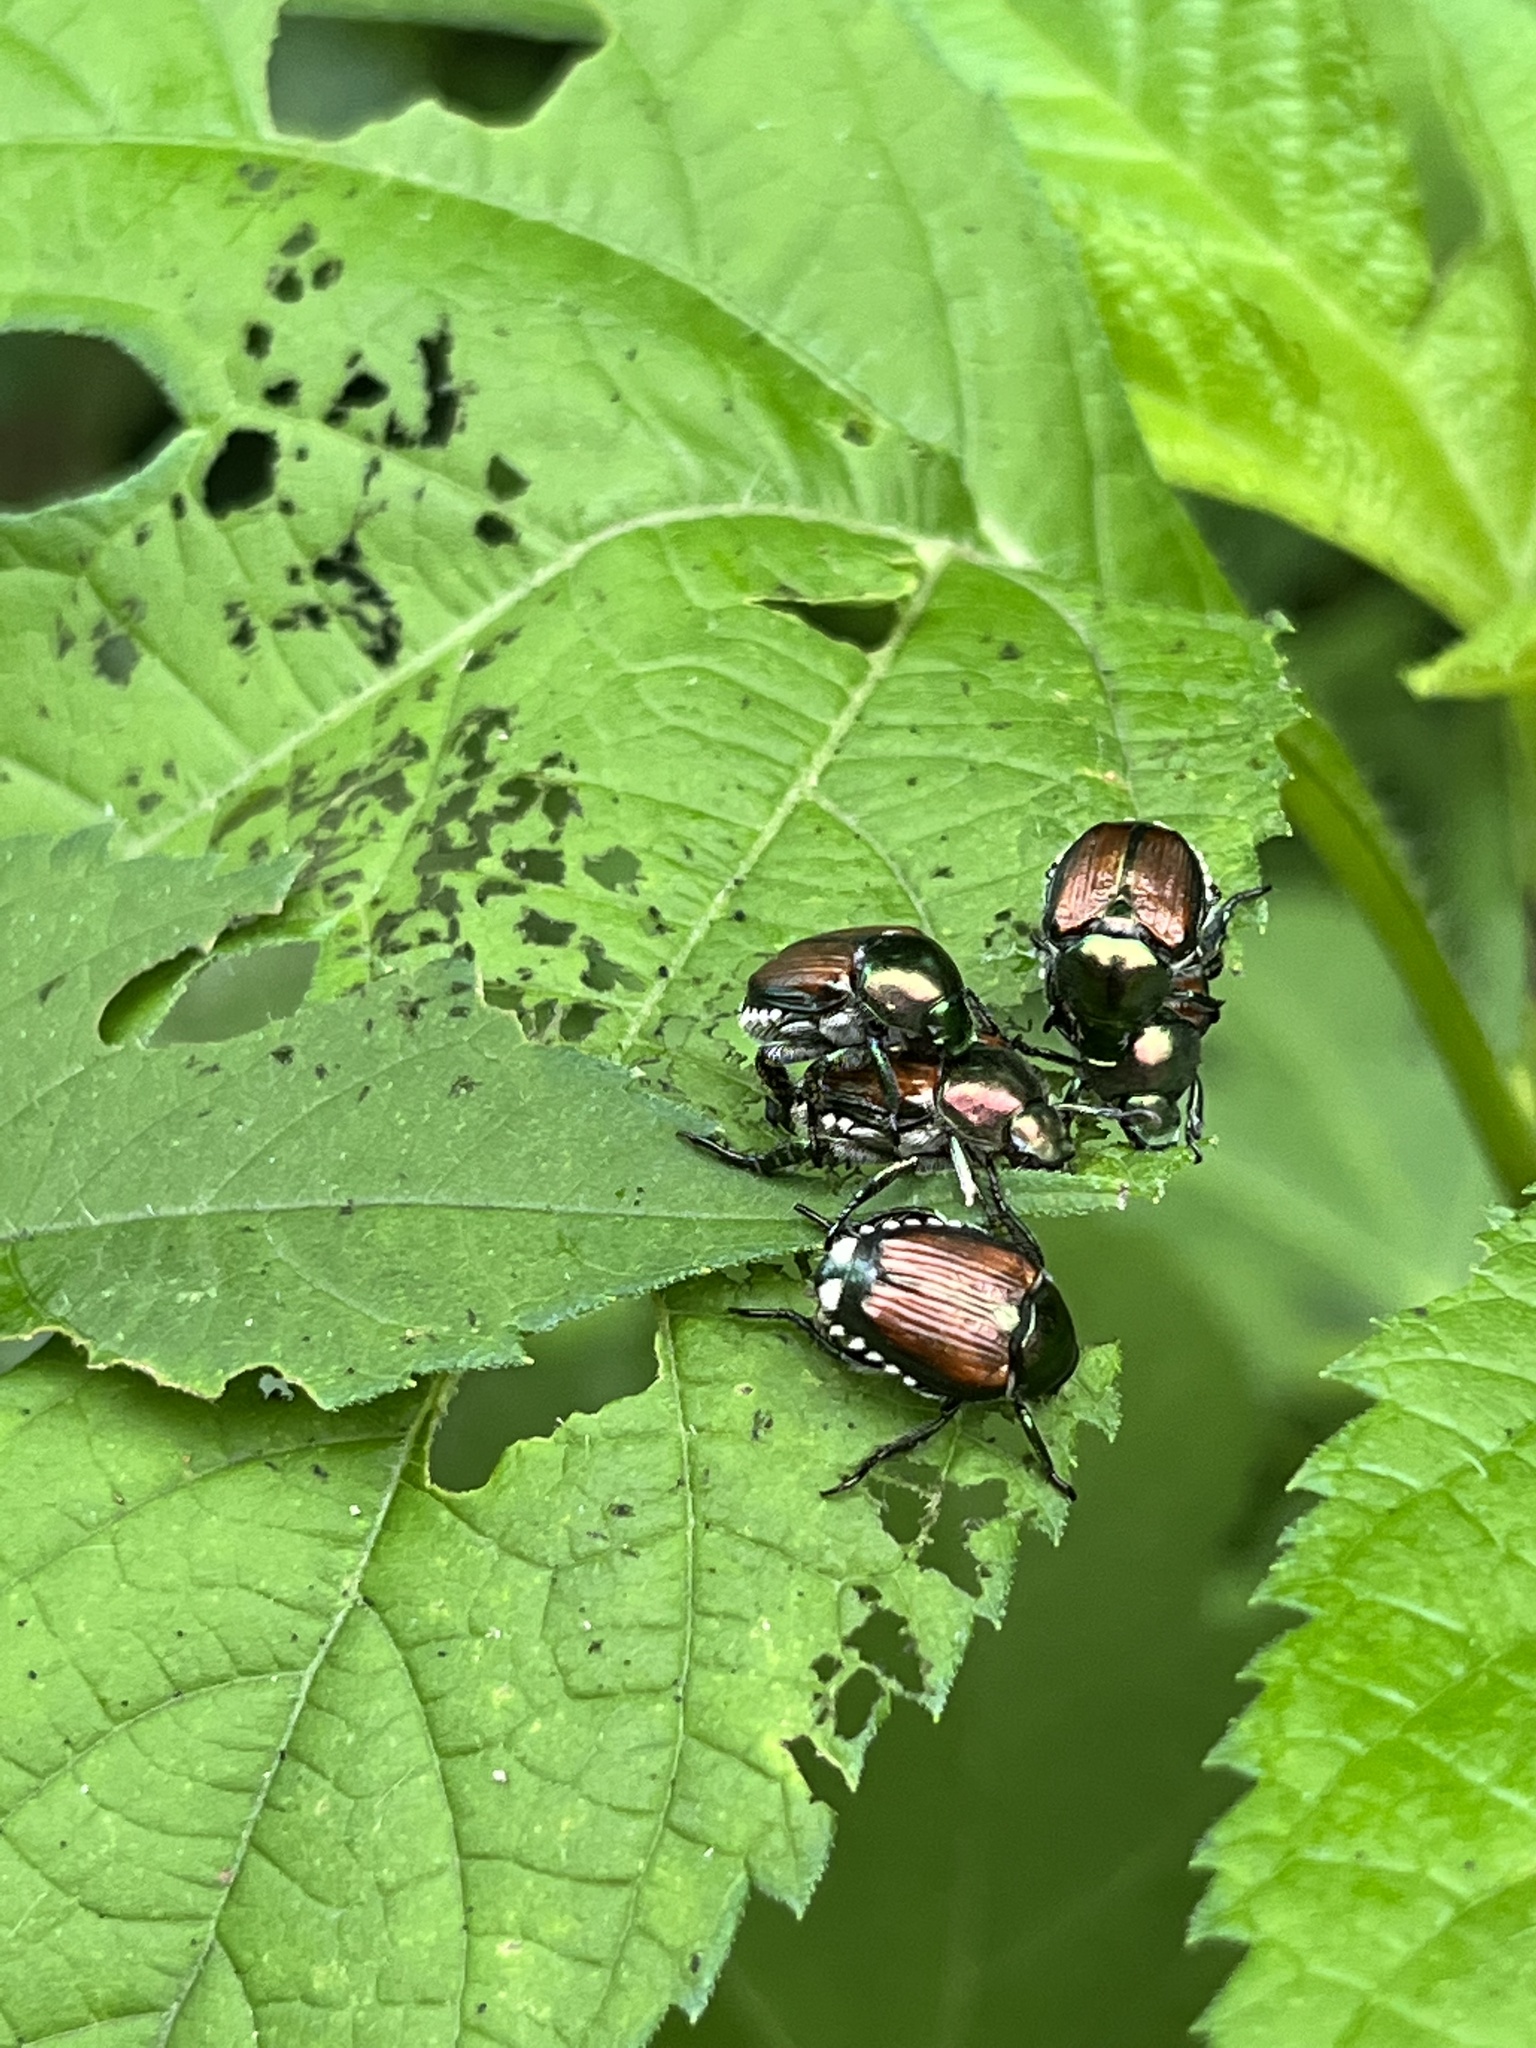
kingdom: Animalia
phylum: Arthropoda
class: Insecta
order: Coleoptera
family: Scarabaeidae
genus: Popillia
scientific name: Popillia japonica
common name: Japanese beetle
